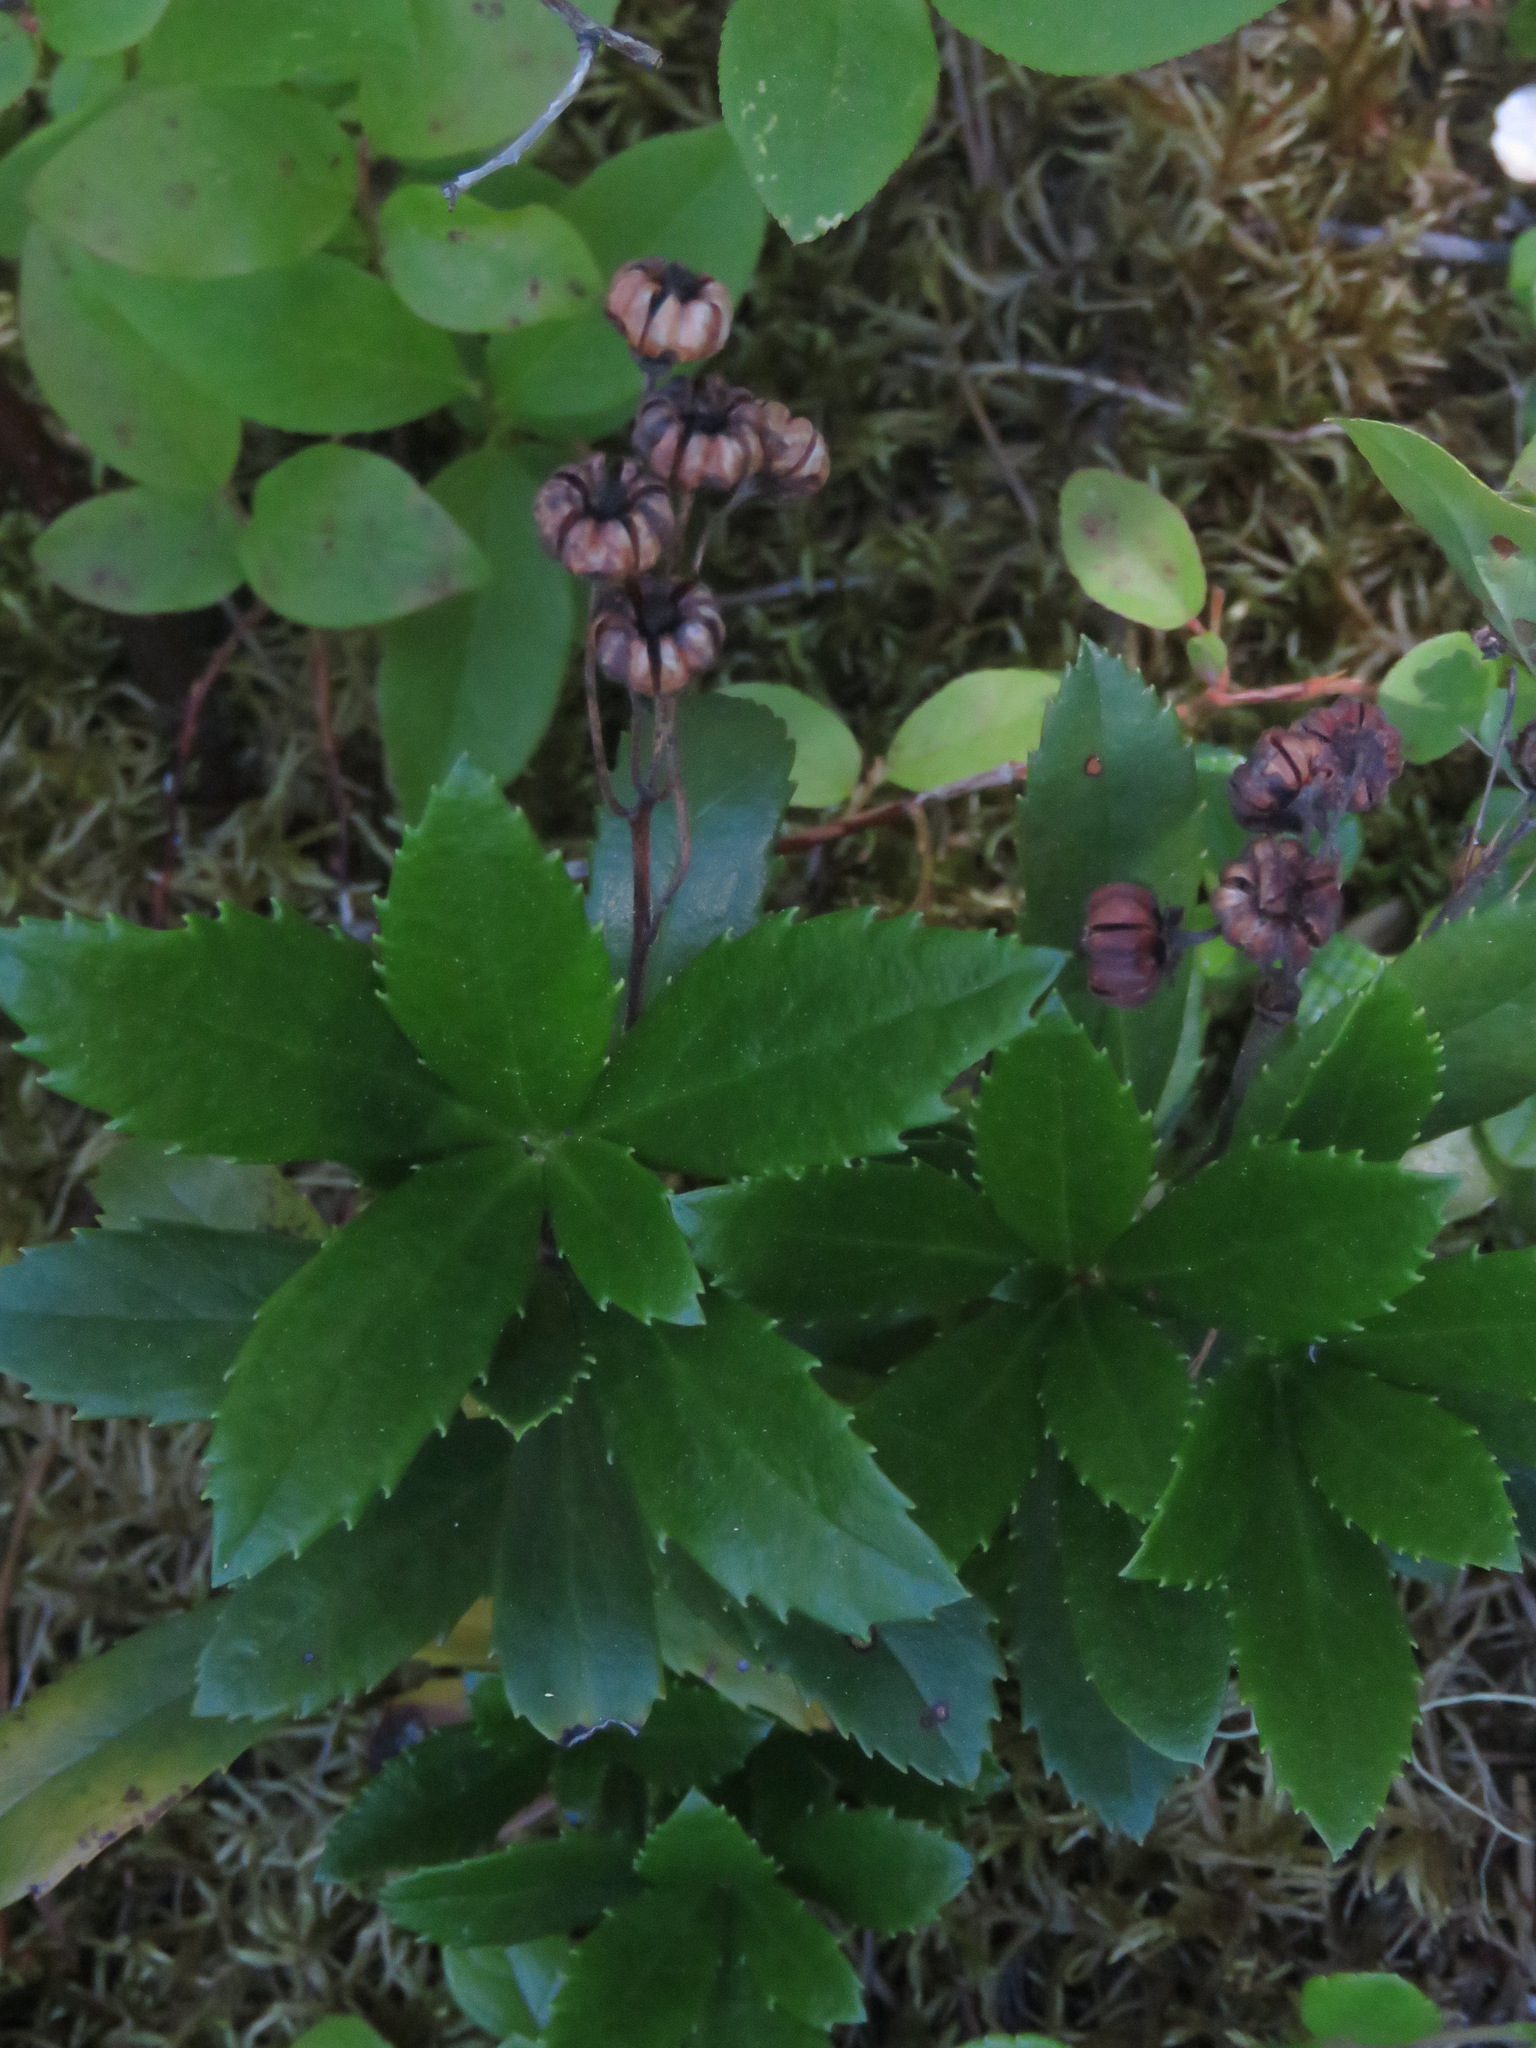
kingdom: Plantae
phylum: Tracheophyta
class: Magnoliopsida
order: Ericales
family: Ericaceae
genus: Chimaphila
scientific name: Chimaphila umbellata
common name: Pipsissewa
